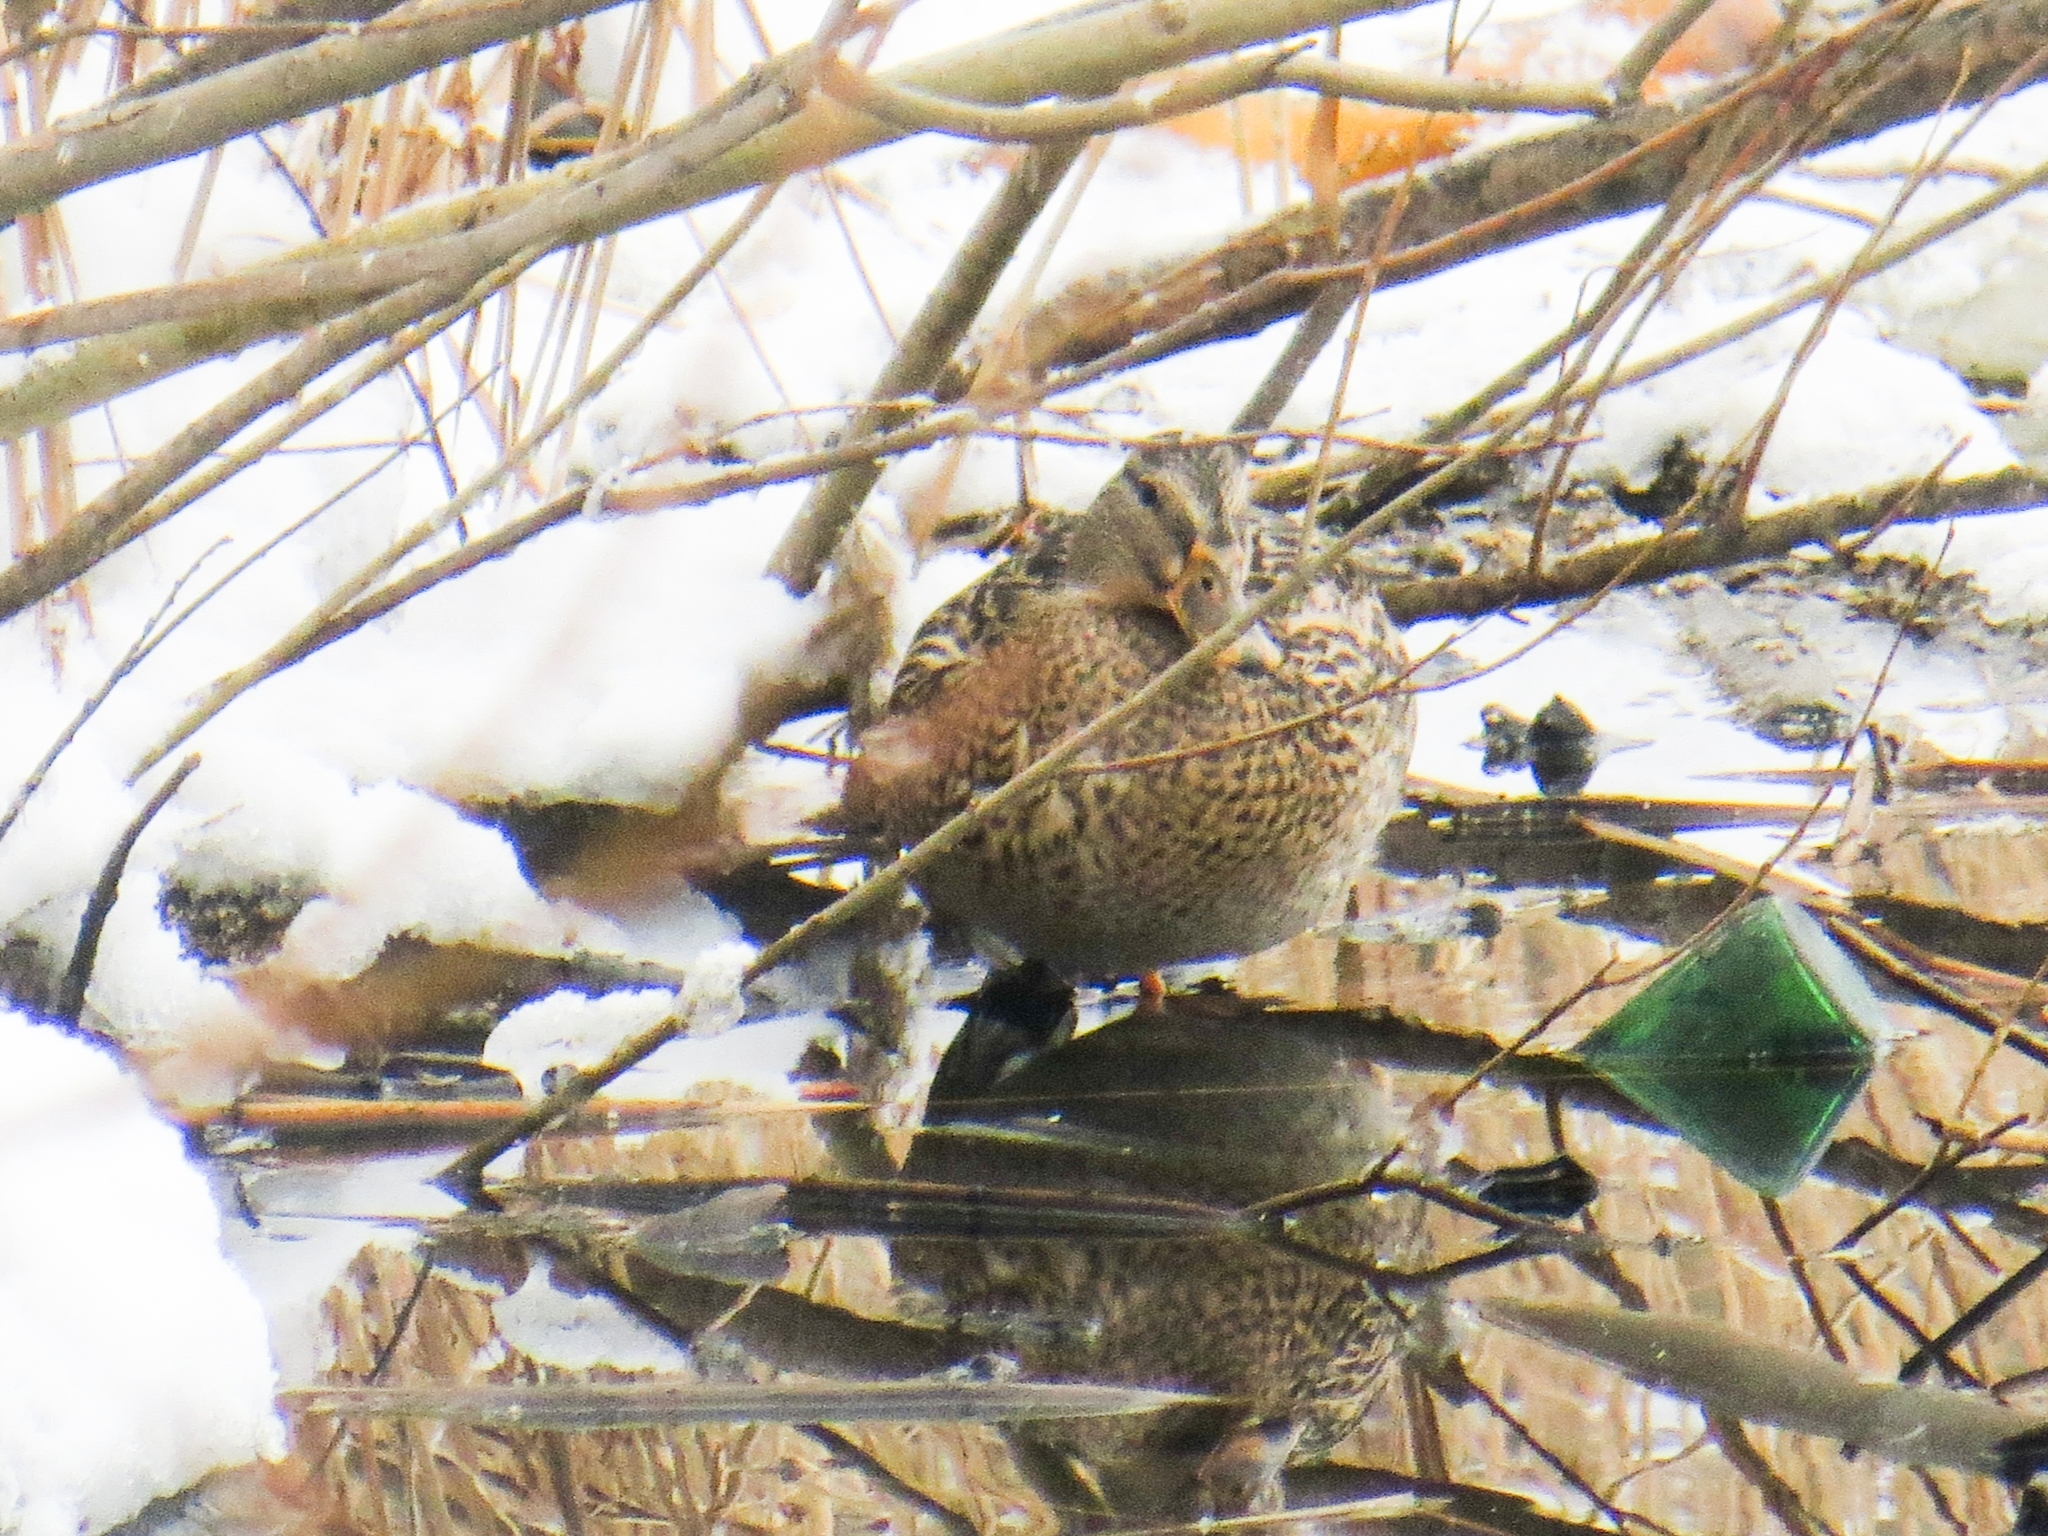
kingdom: Animalia
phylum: Chordata
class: Aves
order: Anseriformes
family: Anatidae
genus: Anas
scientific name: Anas platyrhynchos
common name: Mallard
